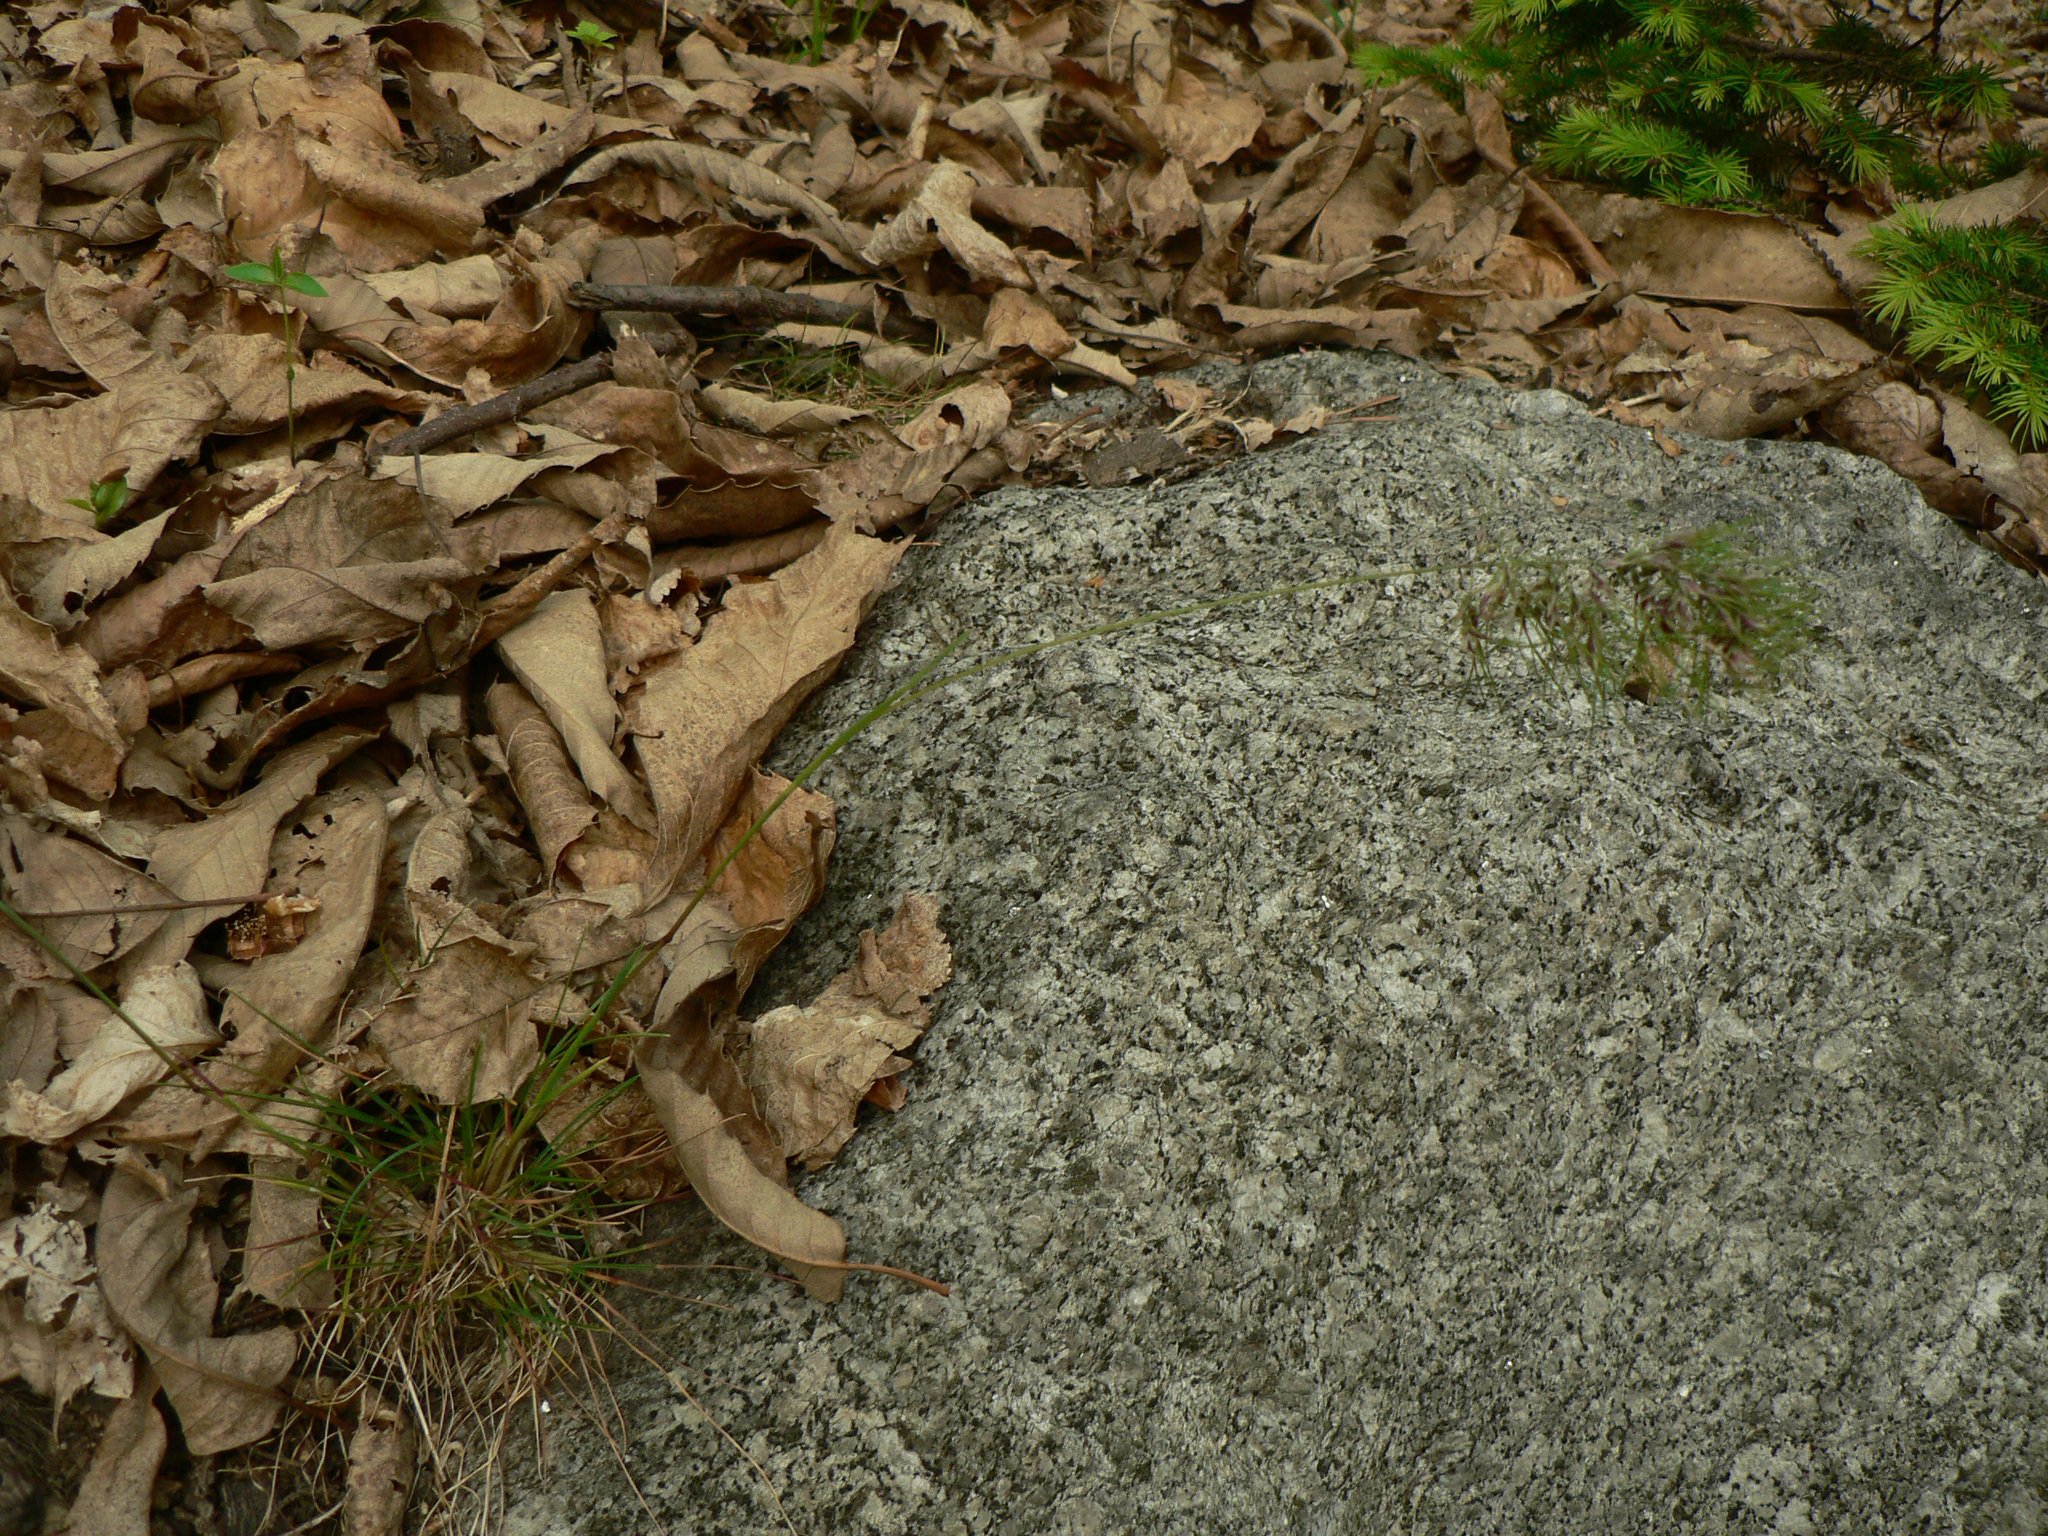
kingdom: Plantae
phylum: Tracheophyta
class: Liliopsida
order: Poales
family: Poaceae
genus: Poa
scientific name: Poa bulbosa
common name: Bulbous bluegrass
